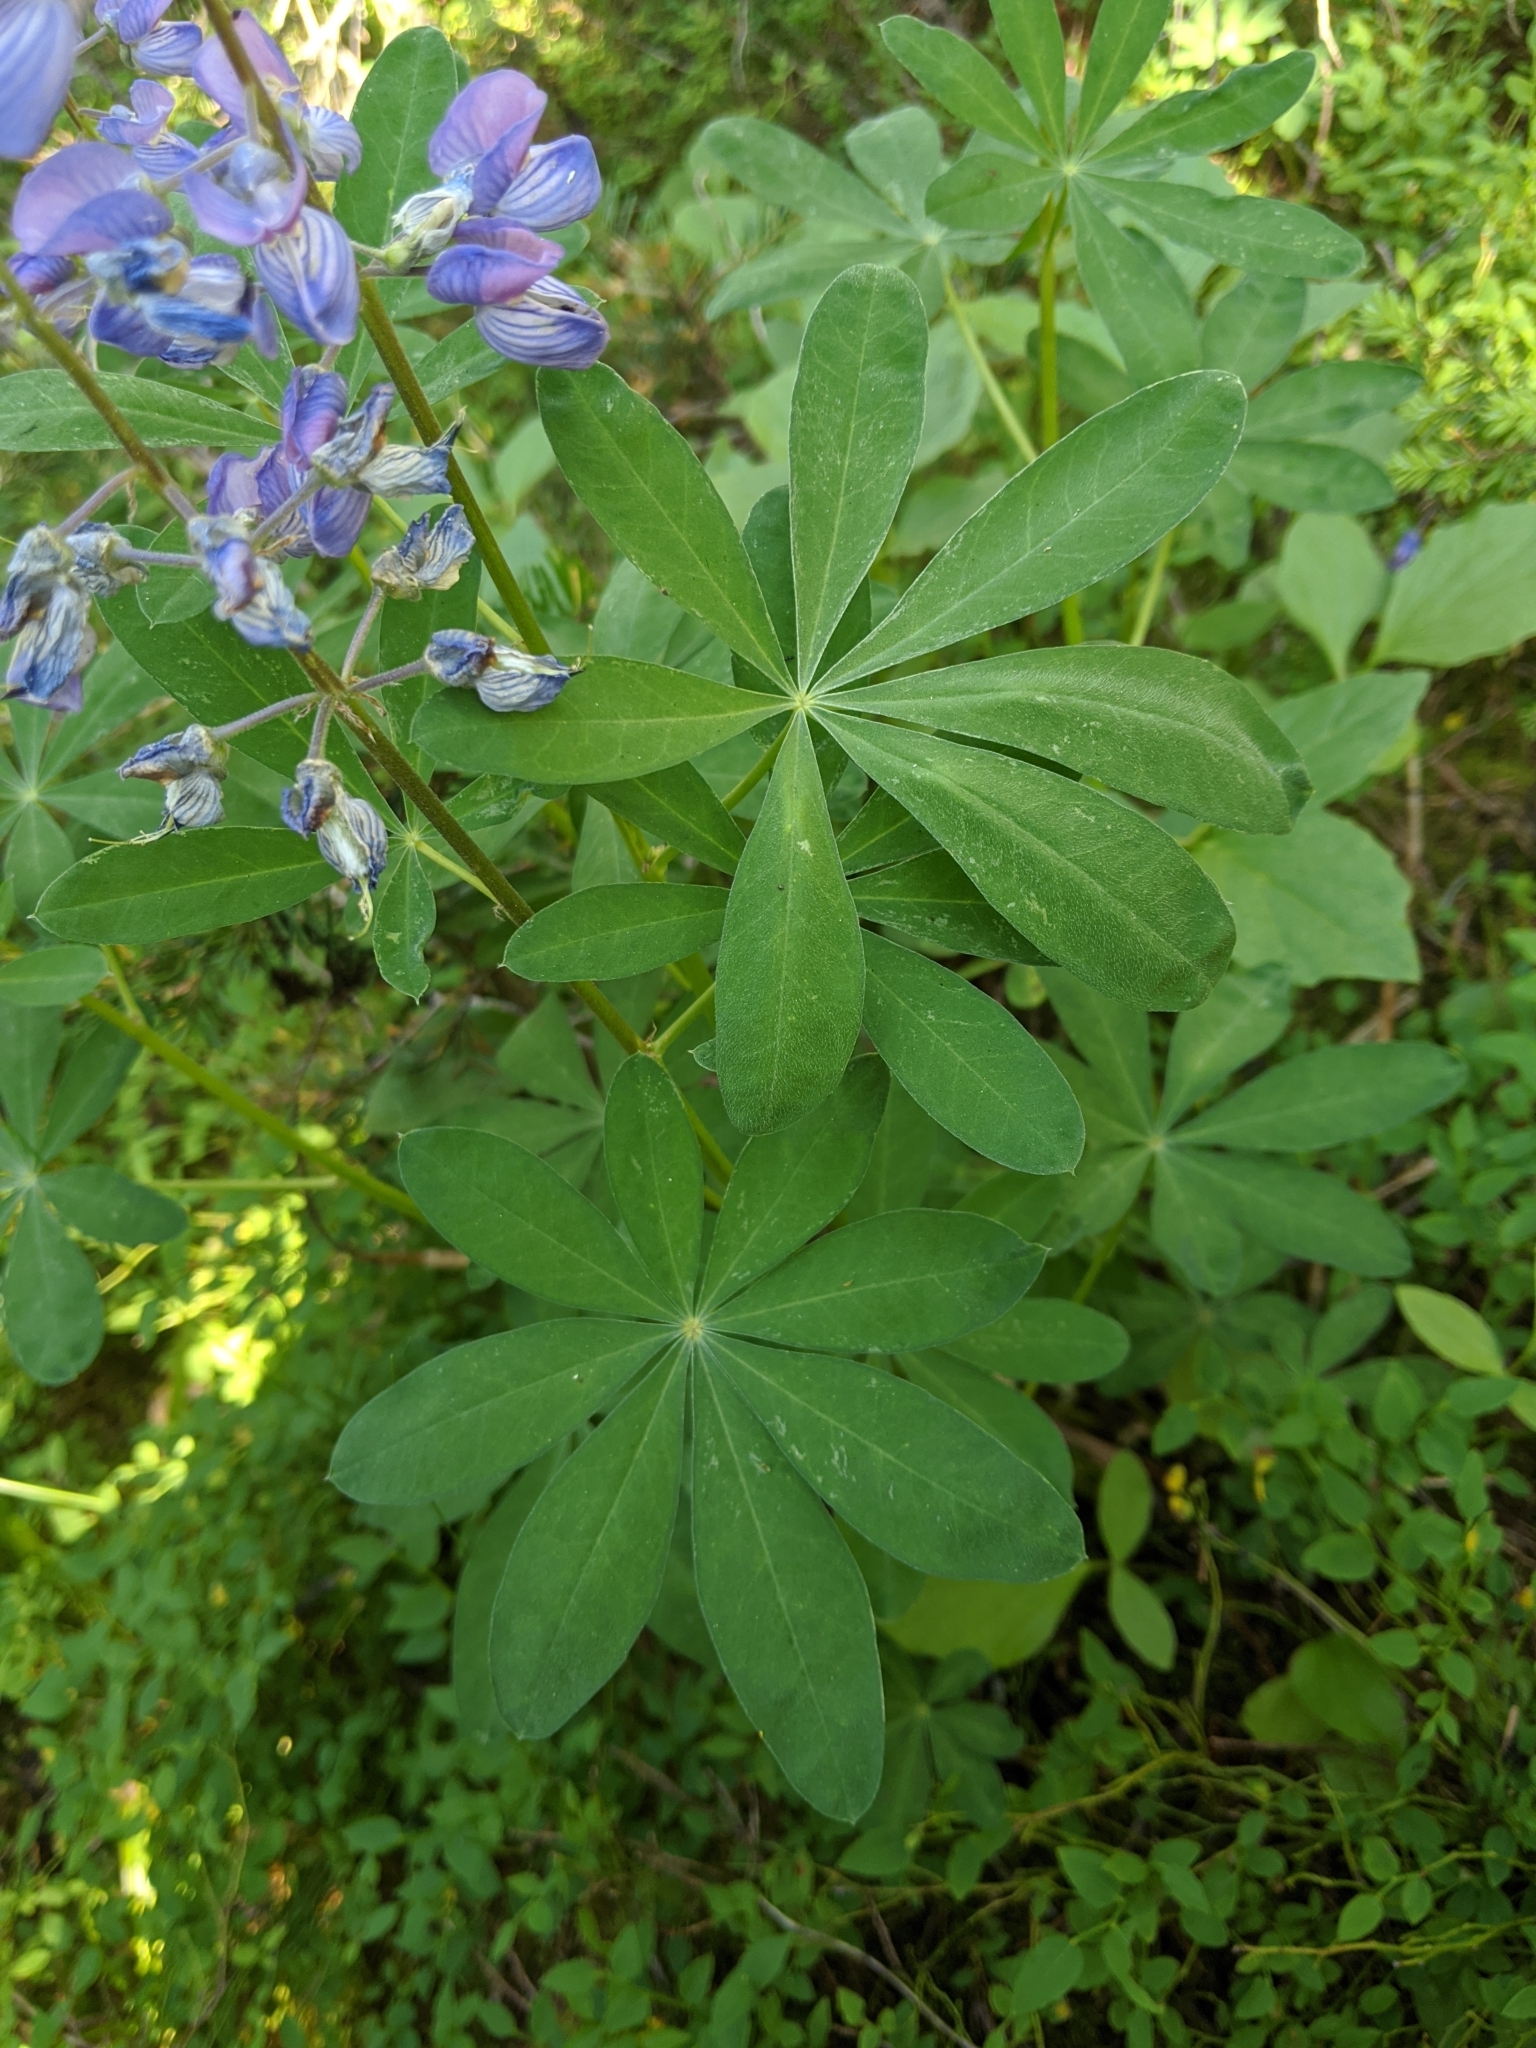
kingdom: Plantae
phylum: Tracheophyta
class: Magnoliopsida
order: Fabales
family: Fabaceae
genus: Lupinus
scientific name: Lupinus latifolius
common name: Broad-leaved lupine
